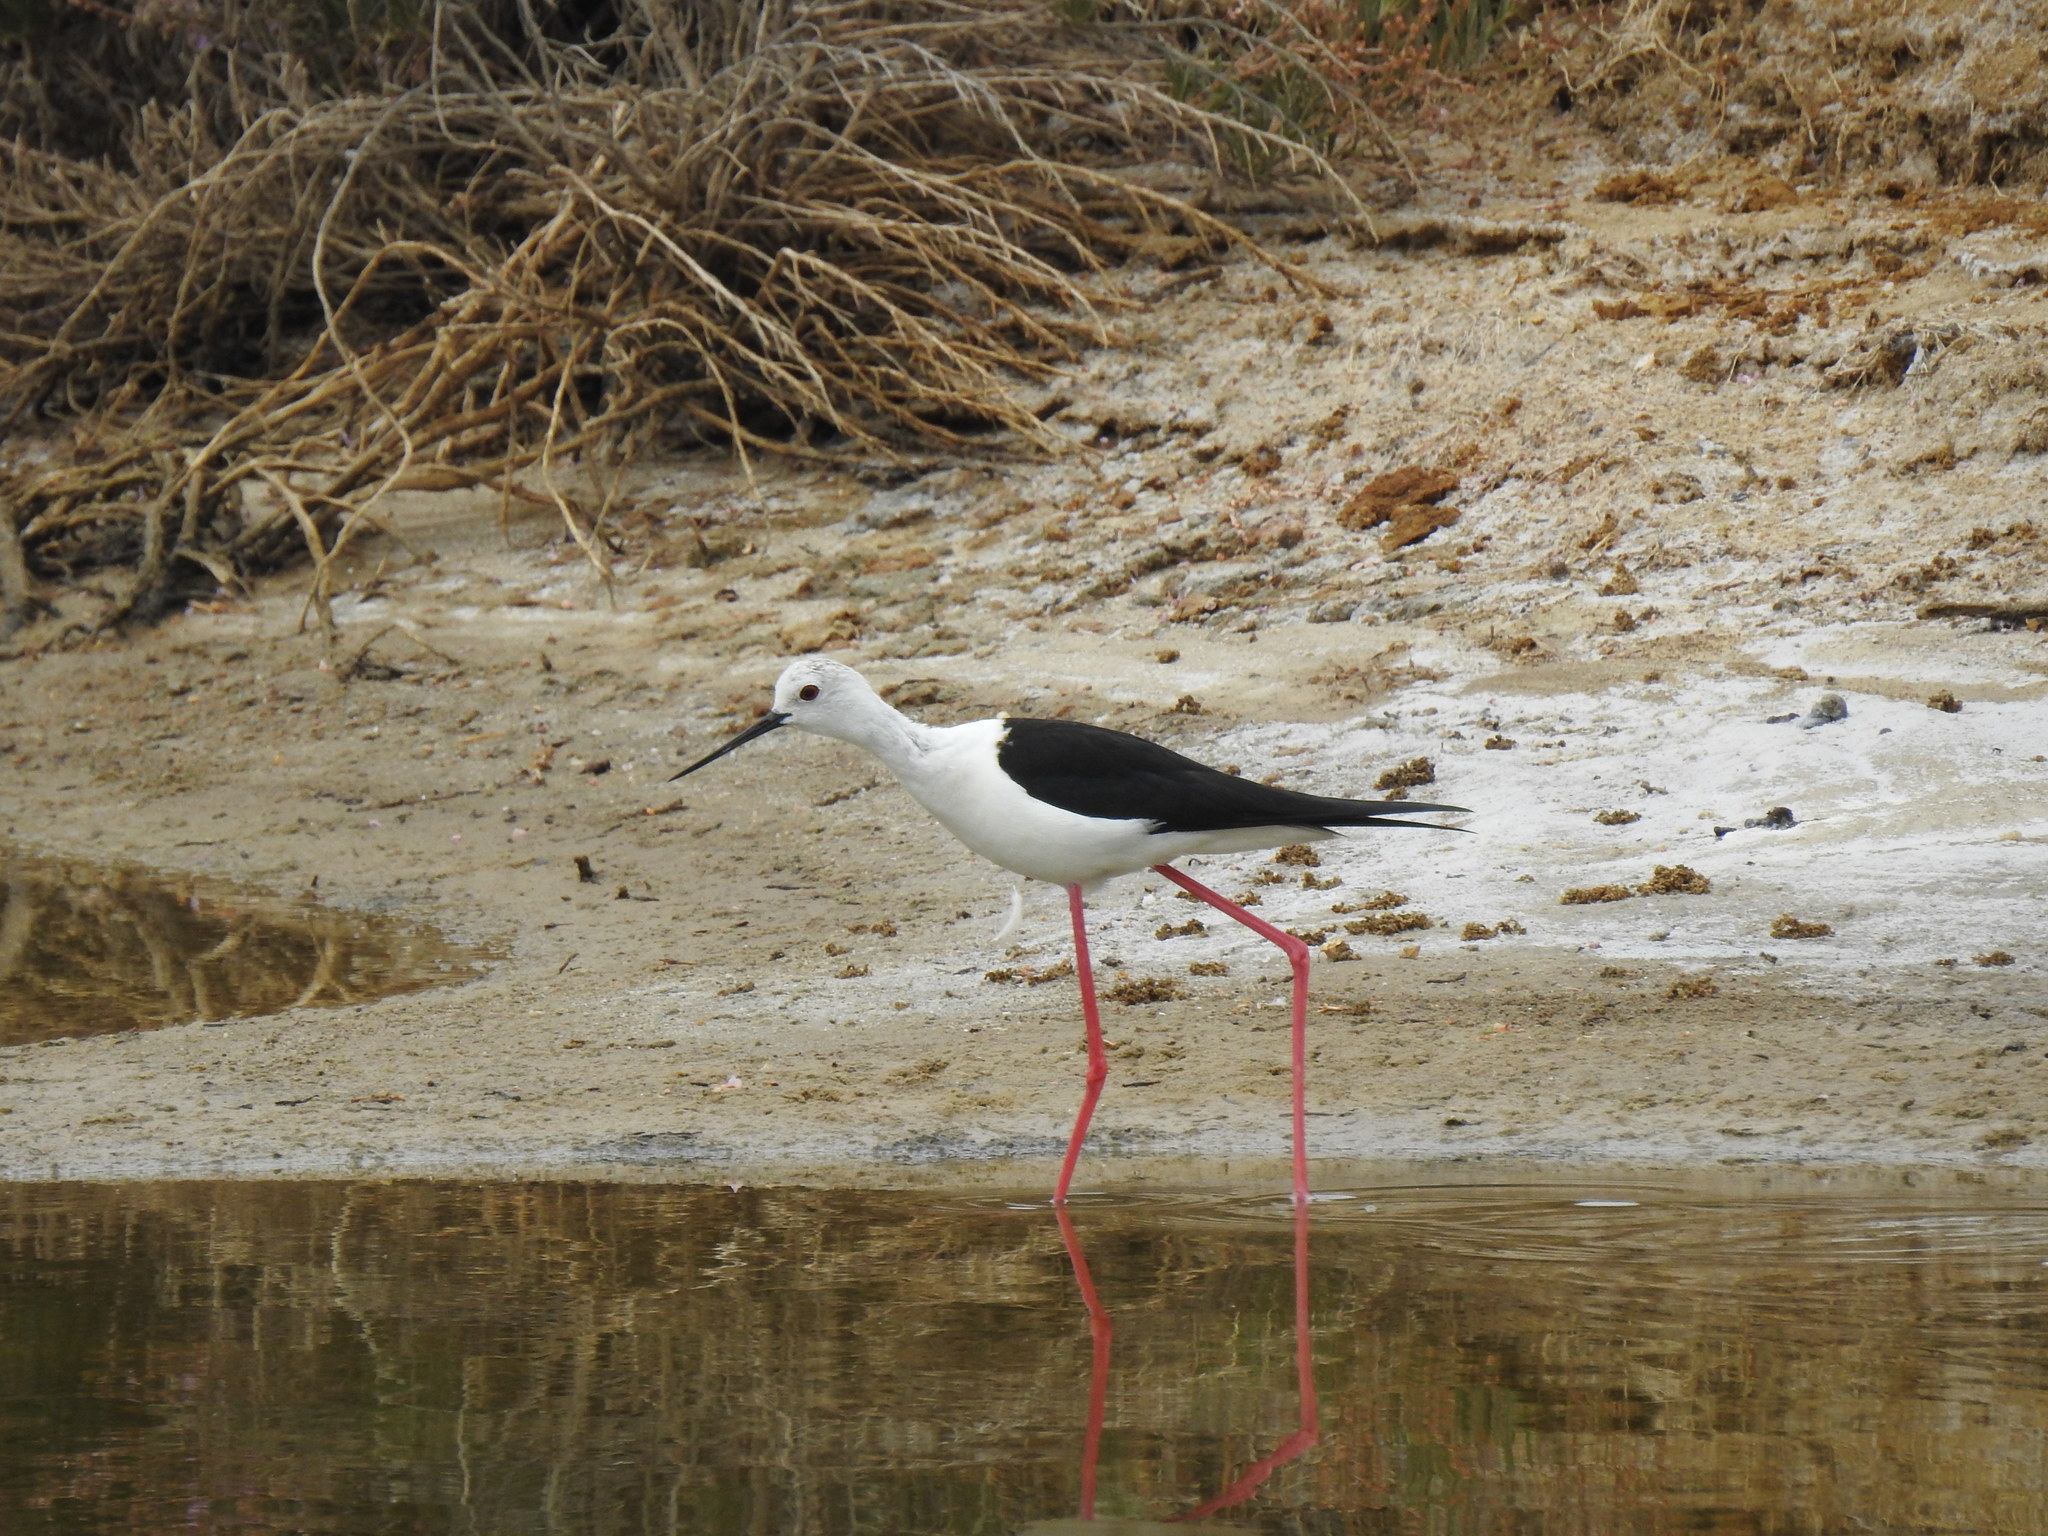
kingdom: Animalia
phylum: Chordata
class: Aves
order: Charadriiformes
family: Recurvirostridae
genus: Himantopus
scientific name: Himantopus himantopus
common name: Black-winged stilt
